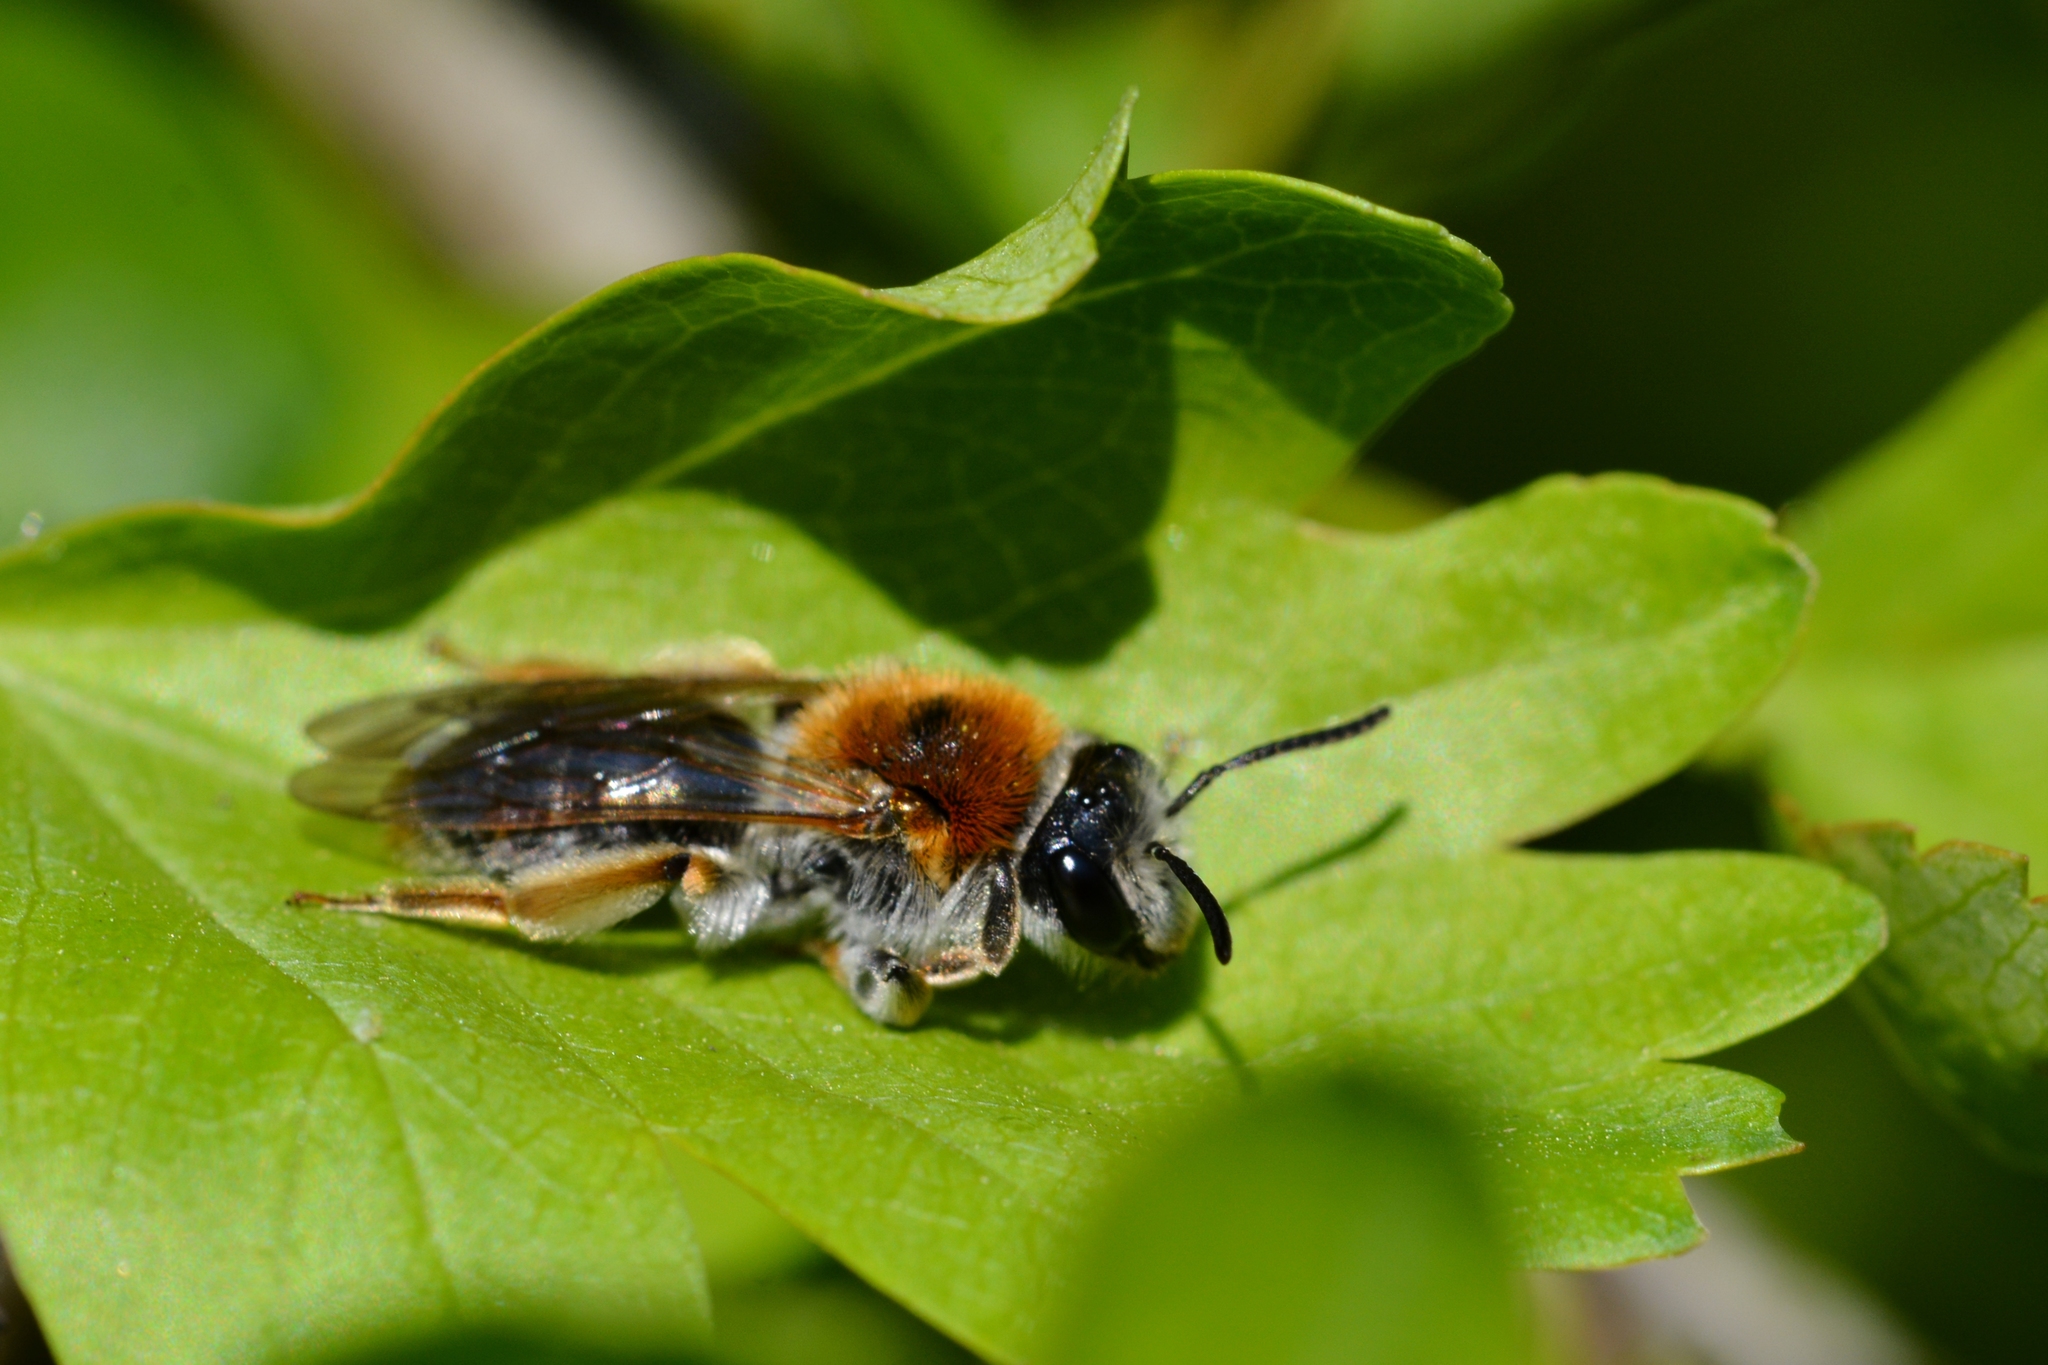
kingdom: Animalia
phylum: Arthropoda
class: Insecta
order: Hymenoptera
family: Andrenidae
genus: Andrena
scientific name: Andrena haemorrhoa
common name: Early mining bee
